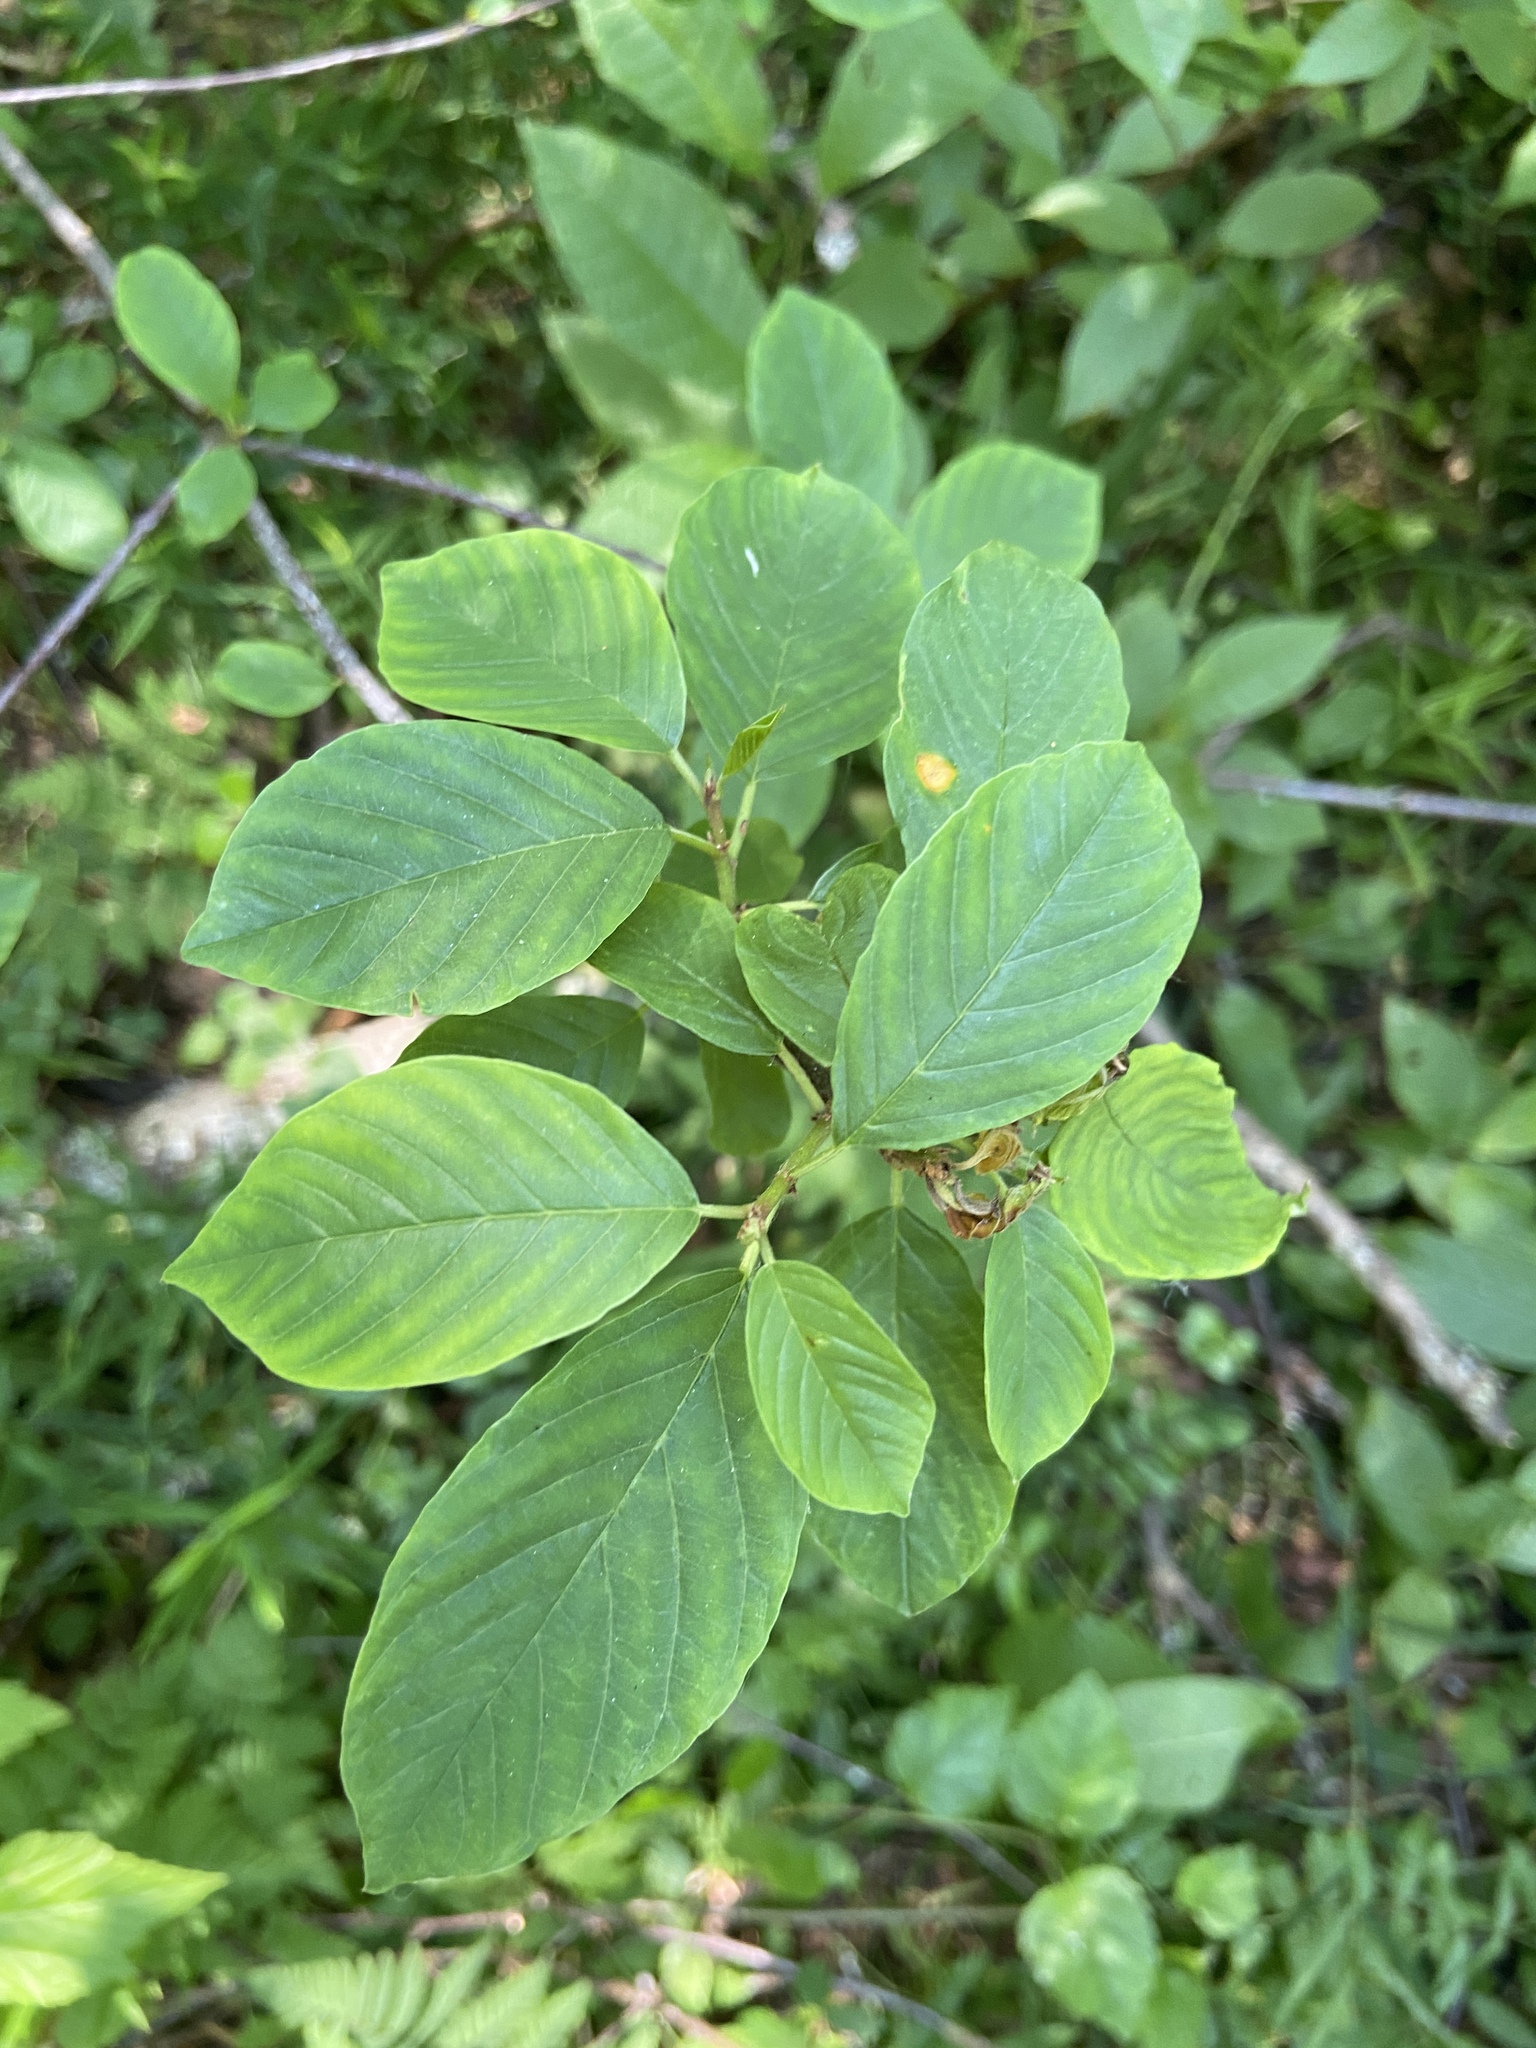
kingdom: Plantae
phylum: Tracheophyta
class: Magnoliopsida
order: Rosales
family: Rhamnaceae
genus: Frangula
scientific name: Frangula alnus
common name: Alder buckthorn
